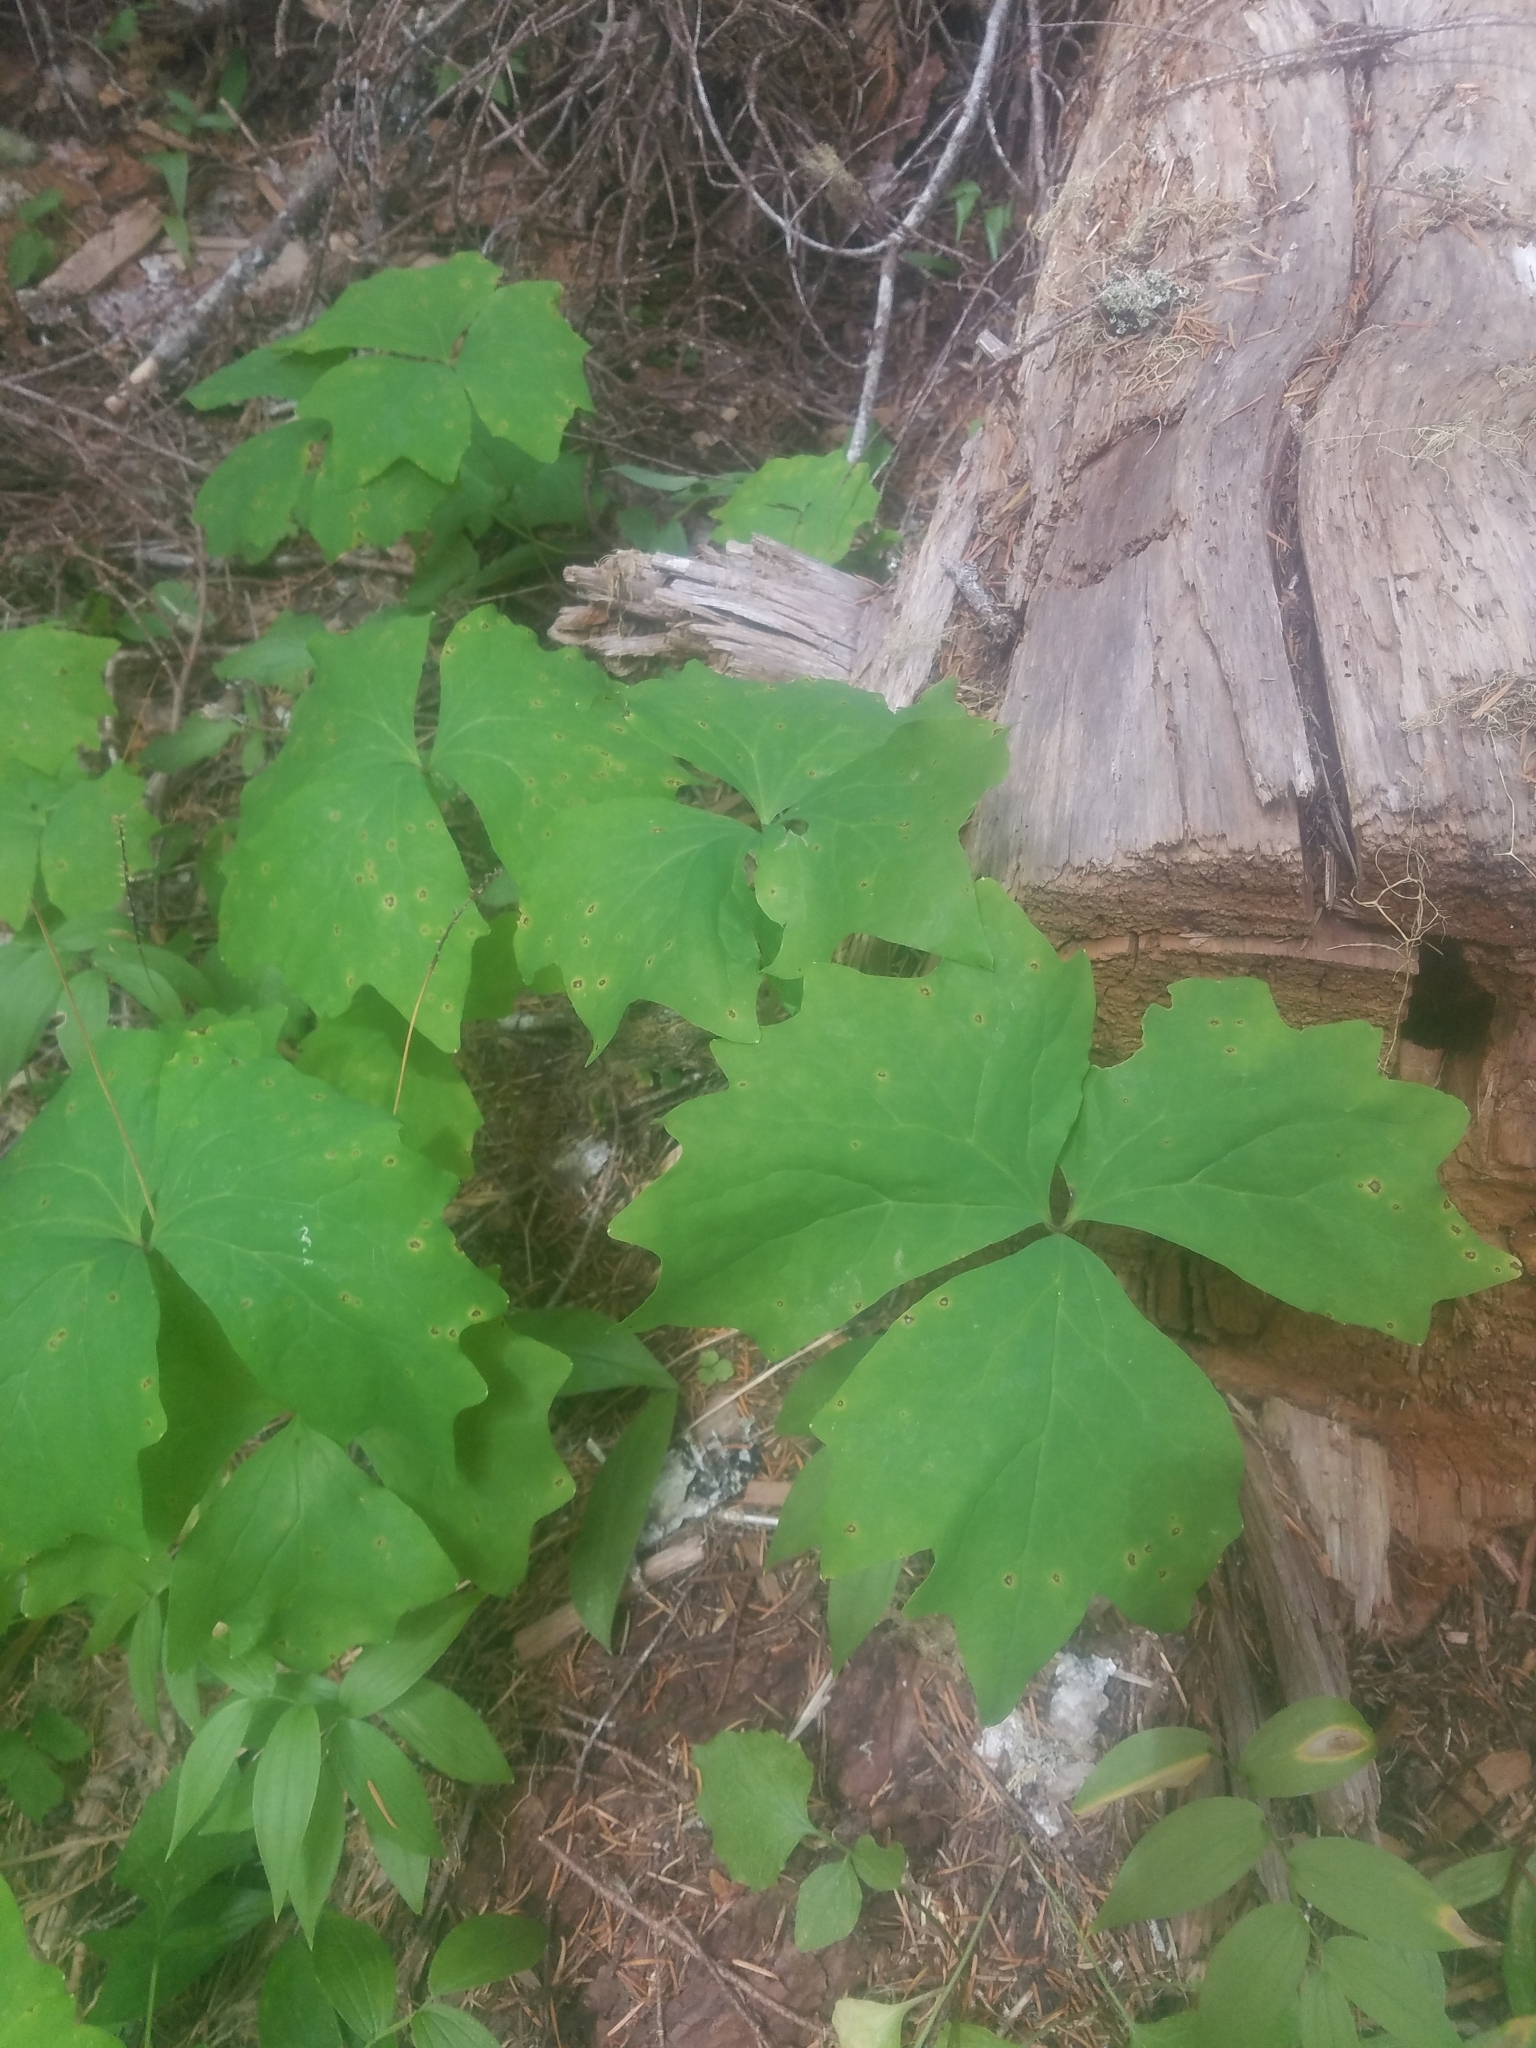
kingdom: Plantae
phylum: Tracheophyta
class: Magnoliopsida
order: Ranunculales
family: Berberidaceae
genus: Achlys
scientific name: Achlys triphylla
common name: Vanilla-leaf
